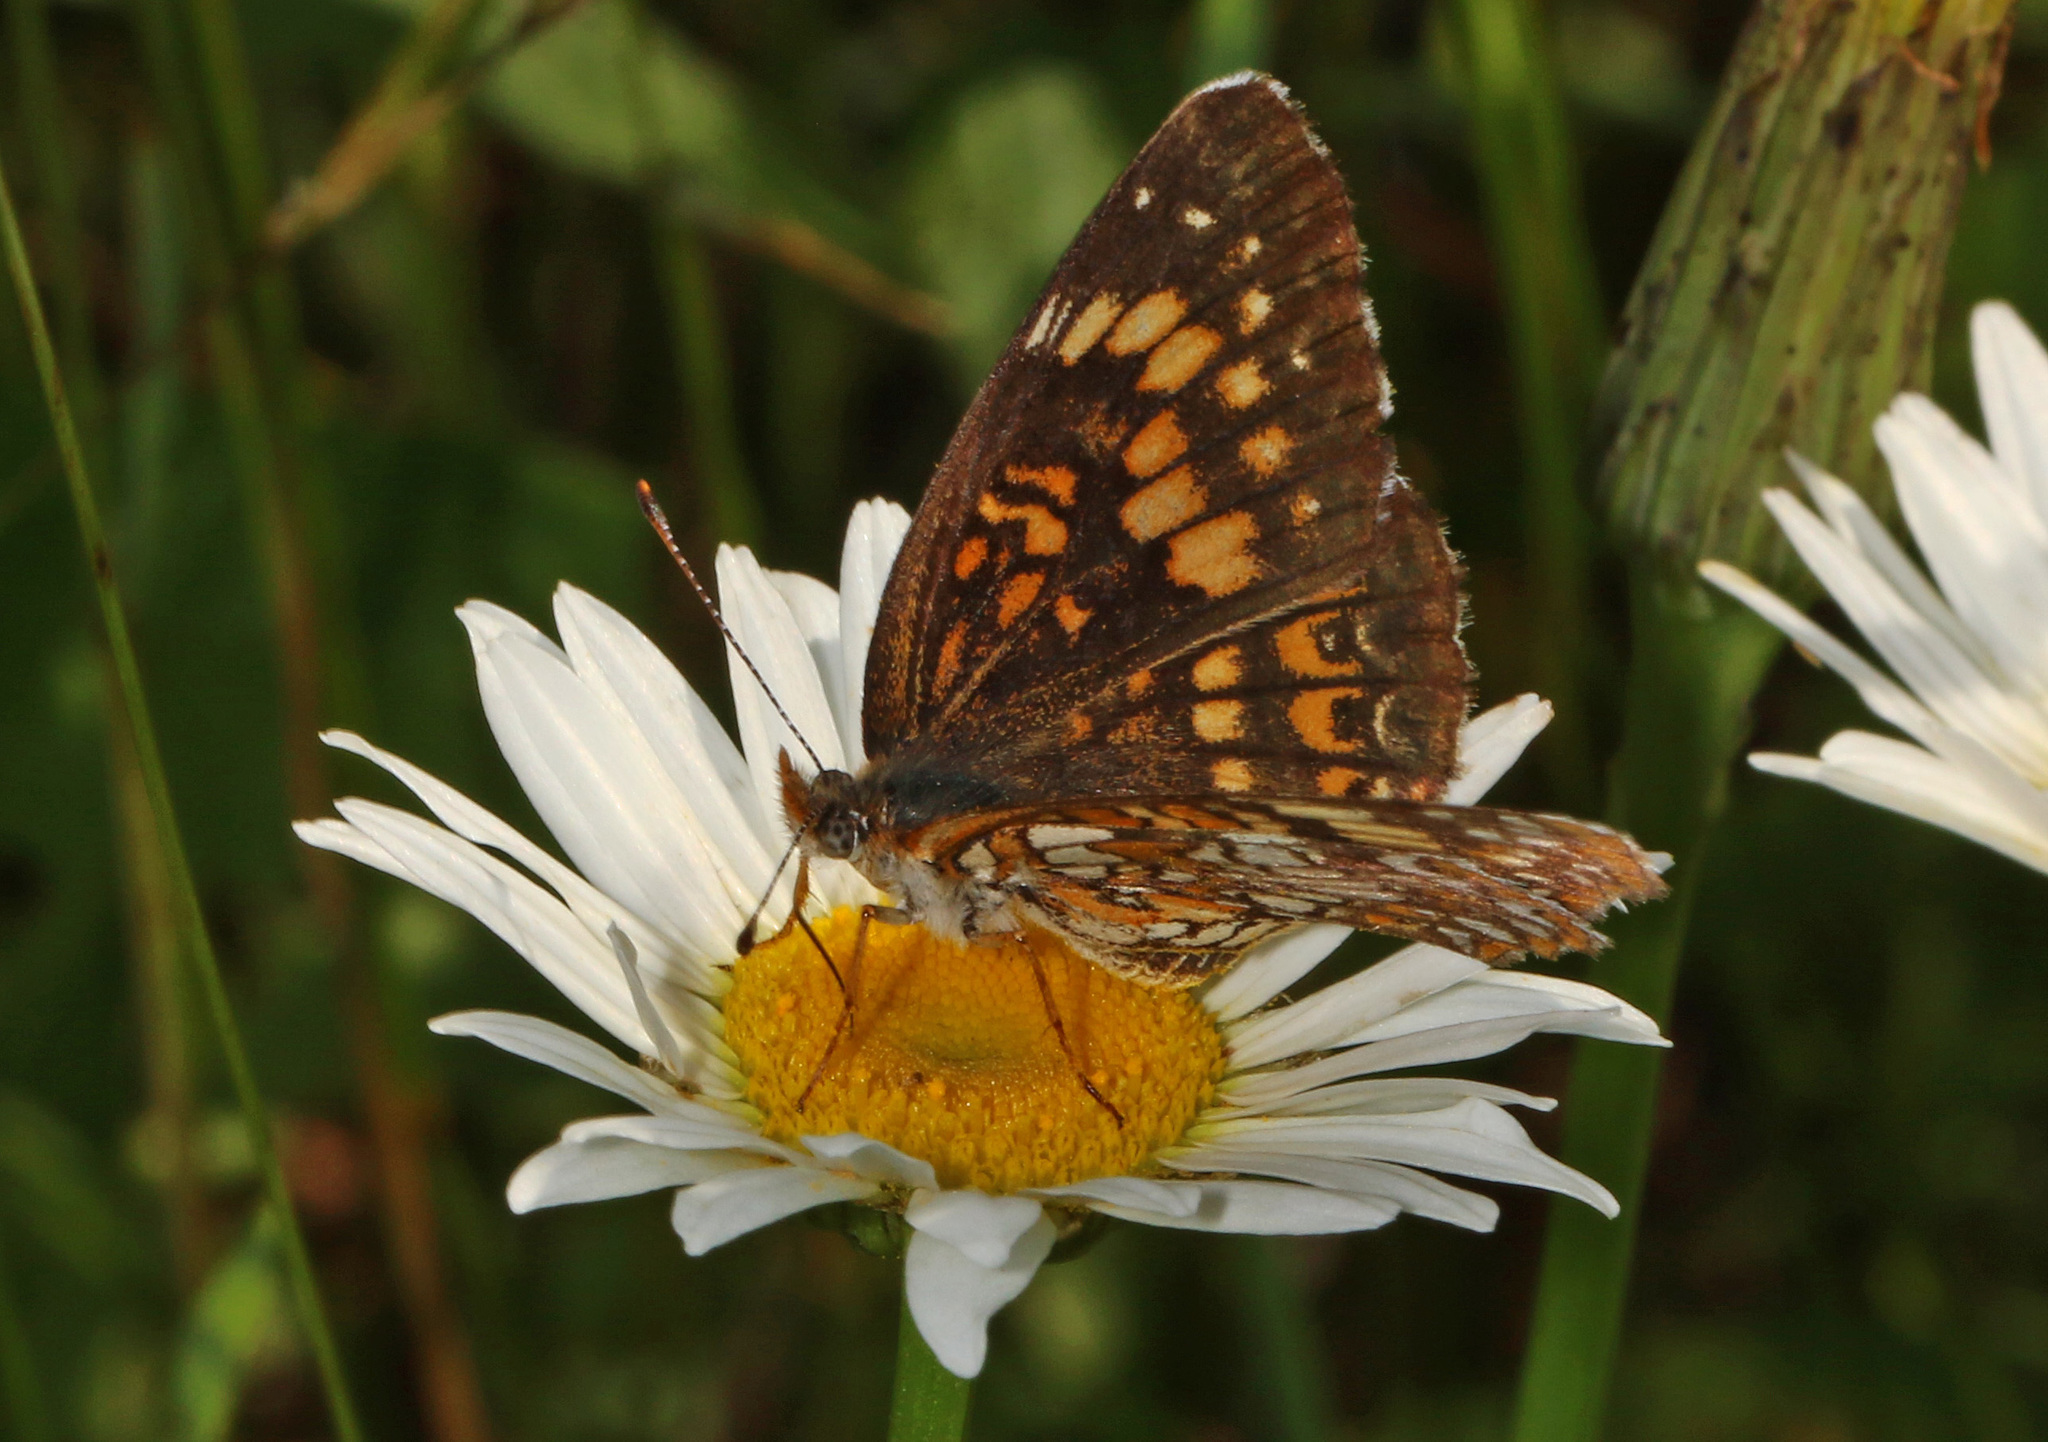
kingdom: Animalia
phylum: Arthropoda
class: Insecta
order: Lepidoptera
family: Nymphalidae
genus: Chlosyne
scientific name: Chlosyne harrisii
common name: Harris's checkerspot
